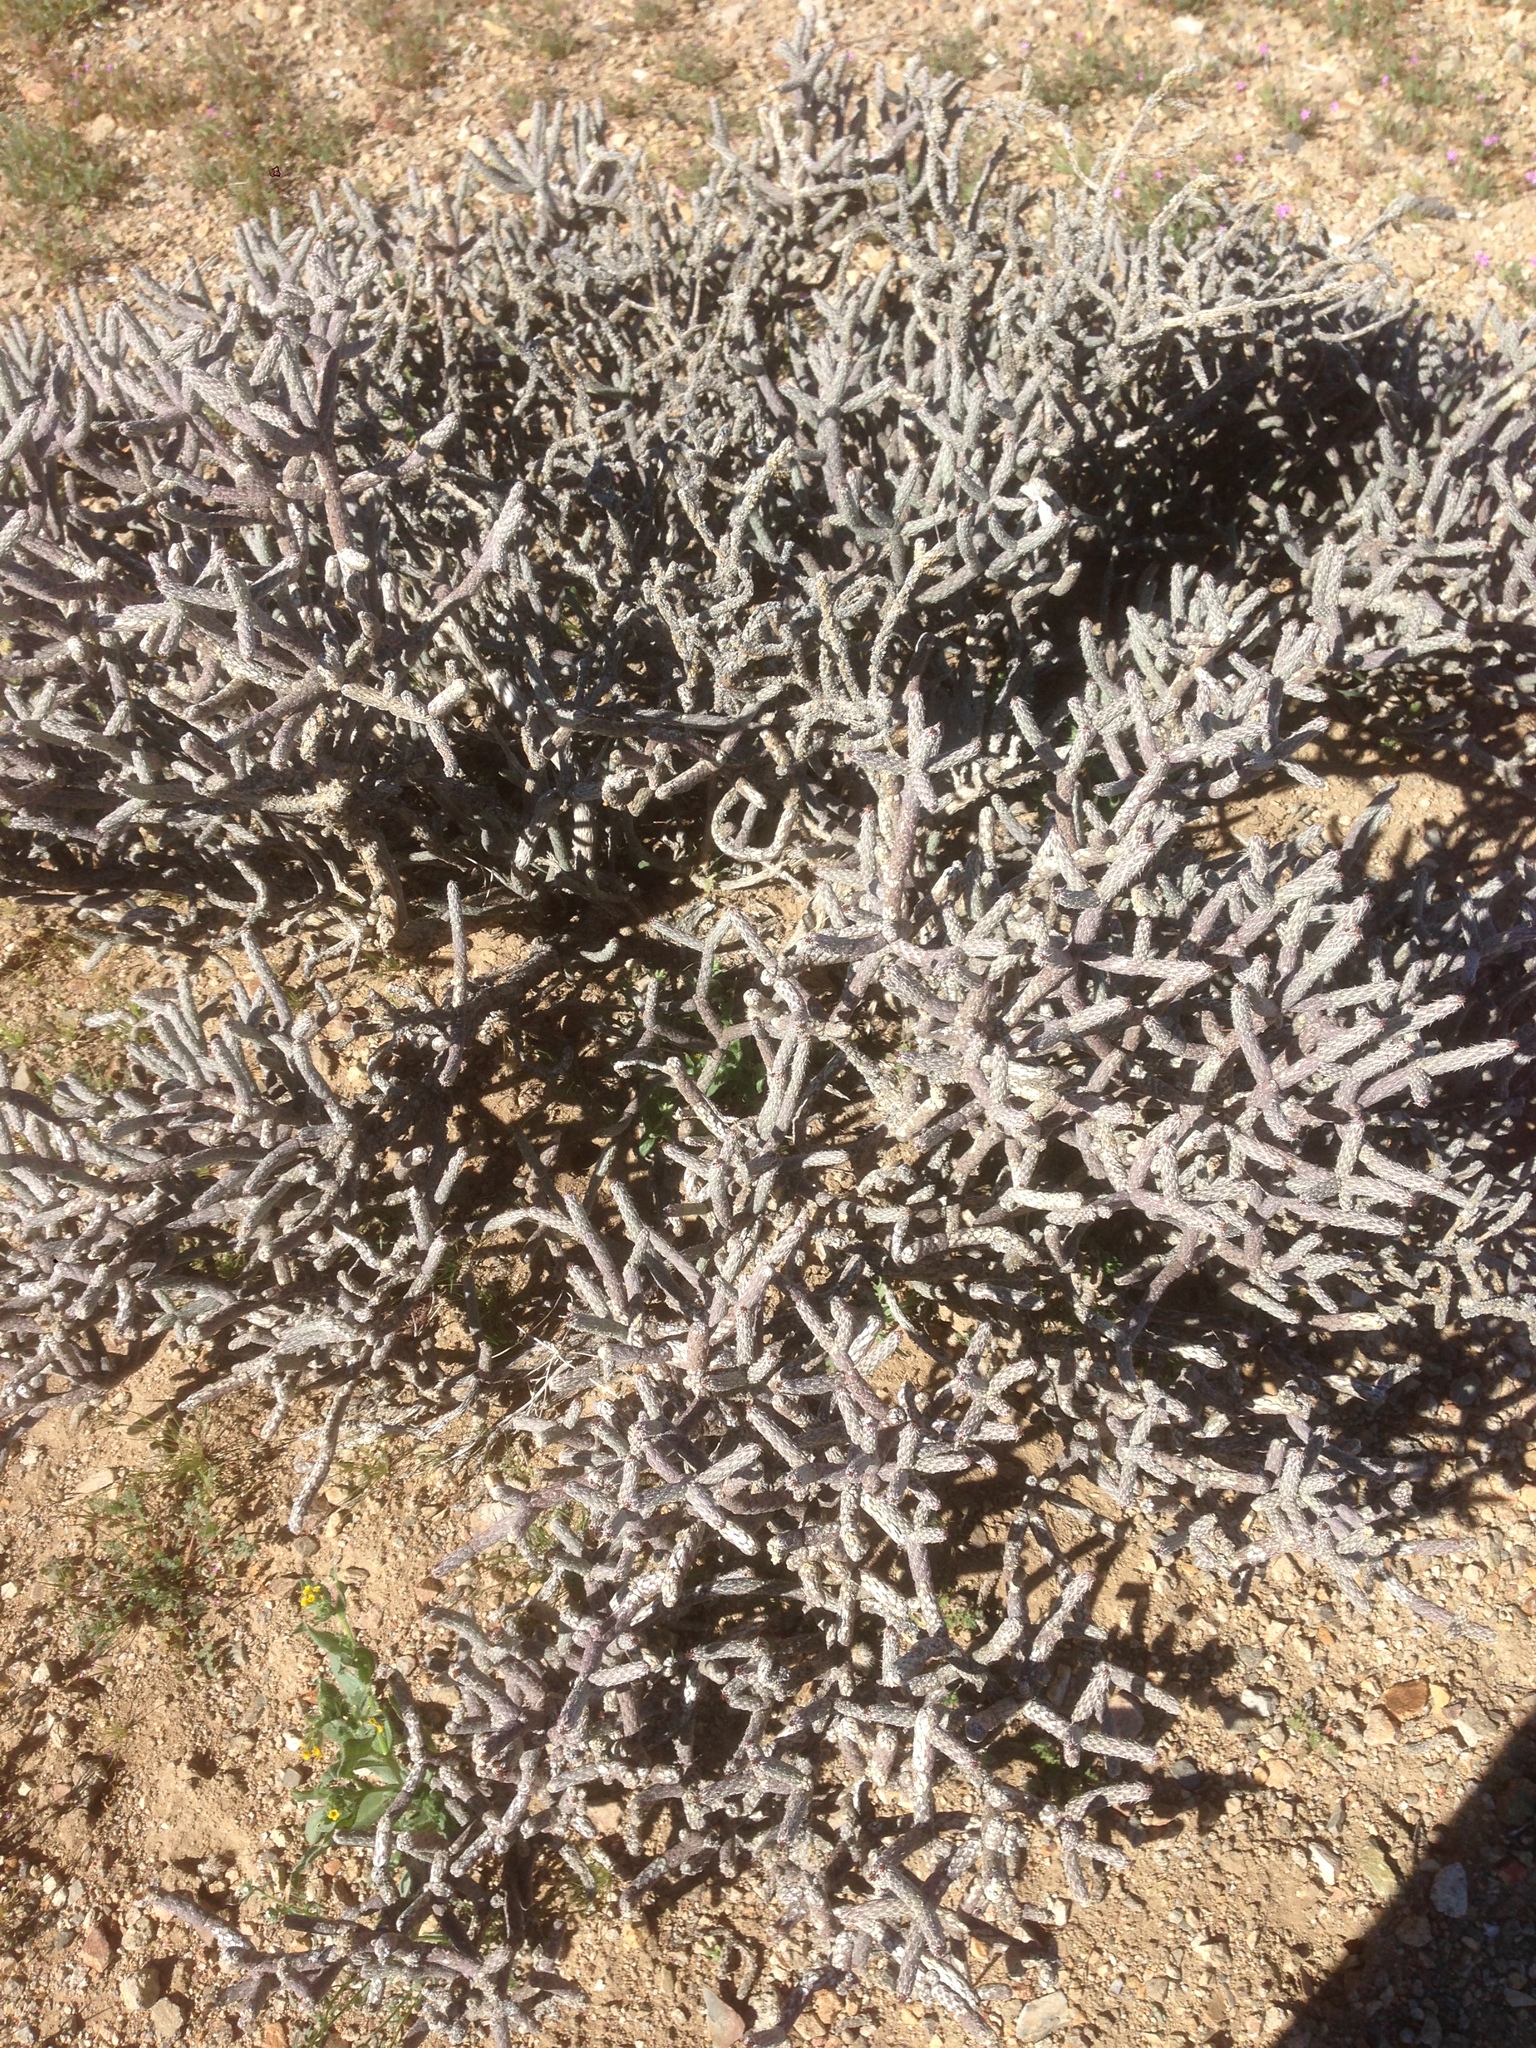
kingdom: Plantae
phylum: Tracheophyta
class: Magnoliopsida
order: Caryophyllales
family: Cactaceae
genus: Cylindropuntia
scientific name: Cylindropuntia ramosissima
